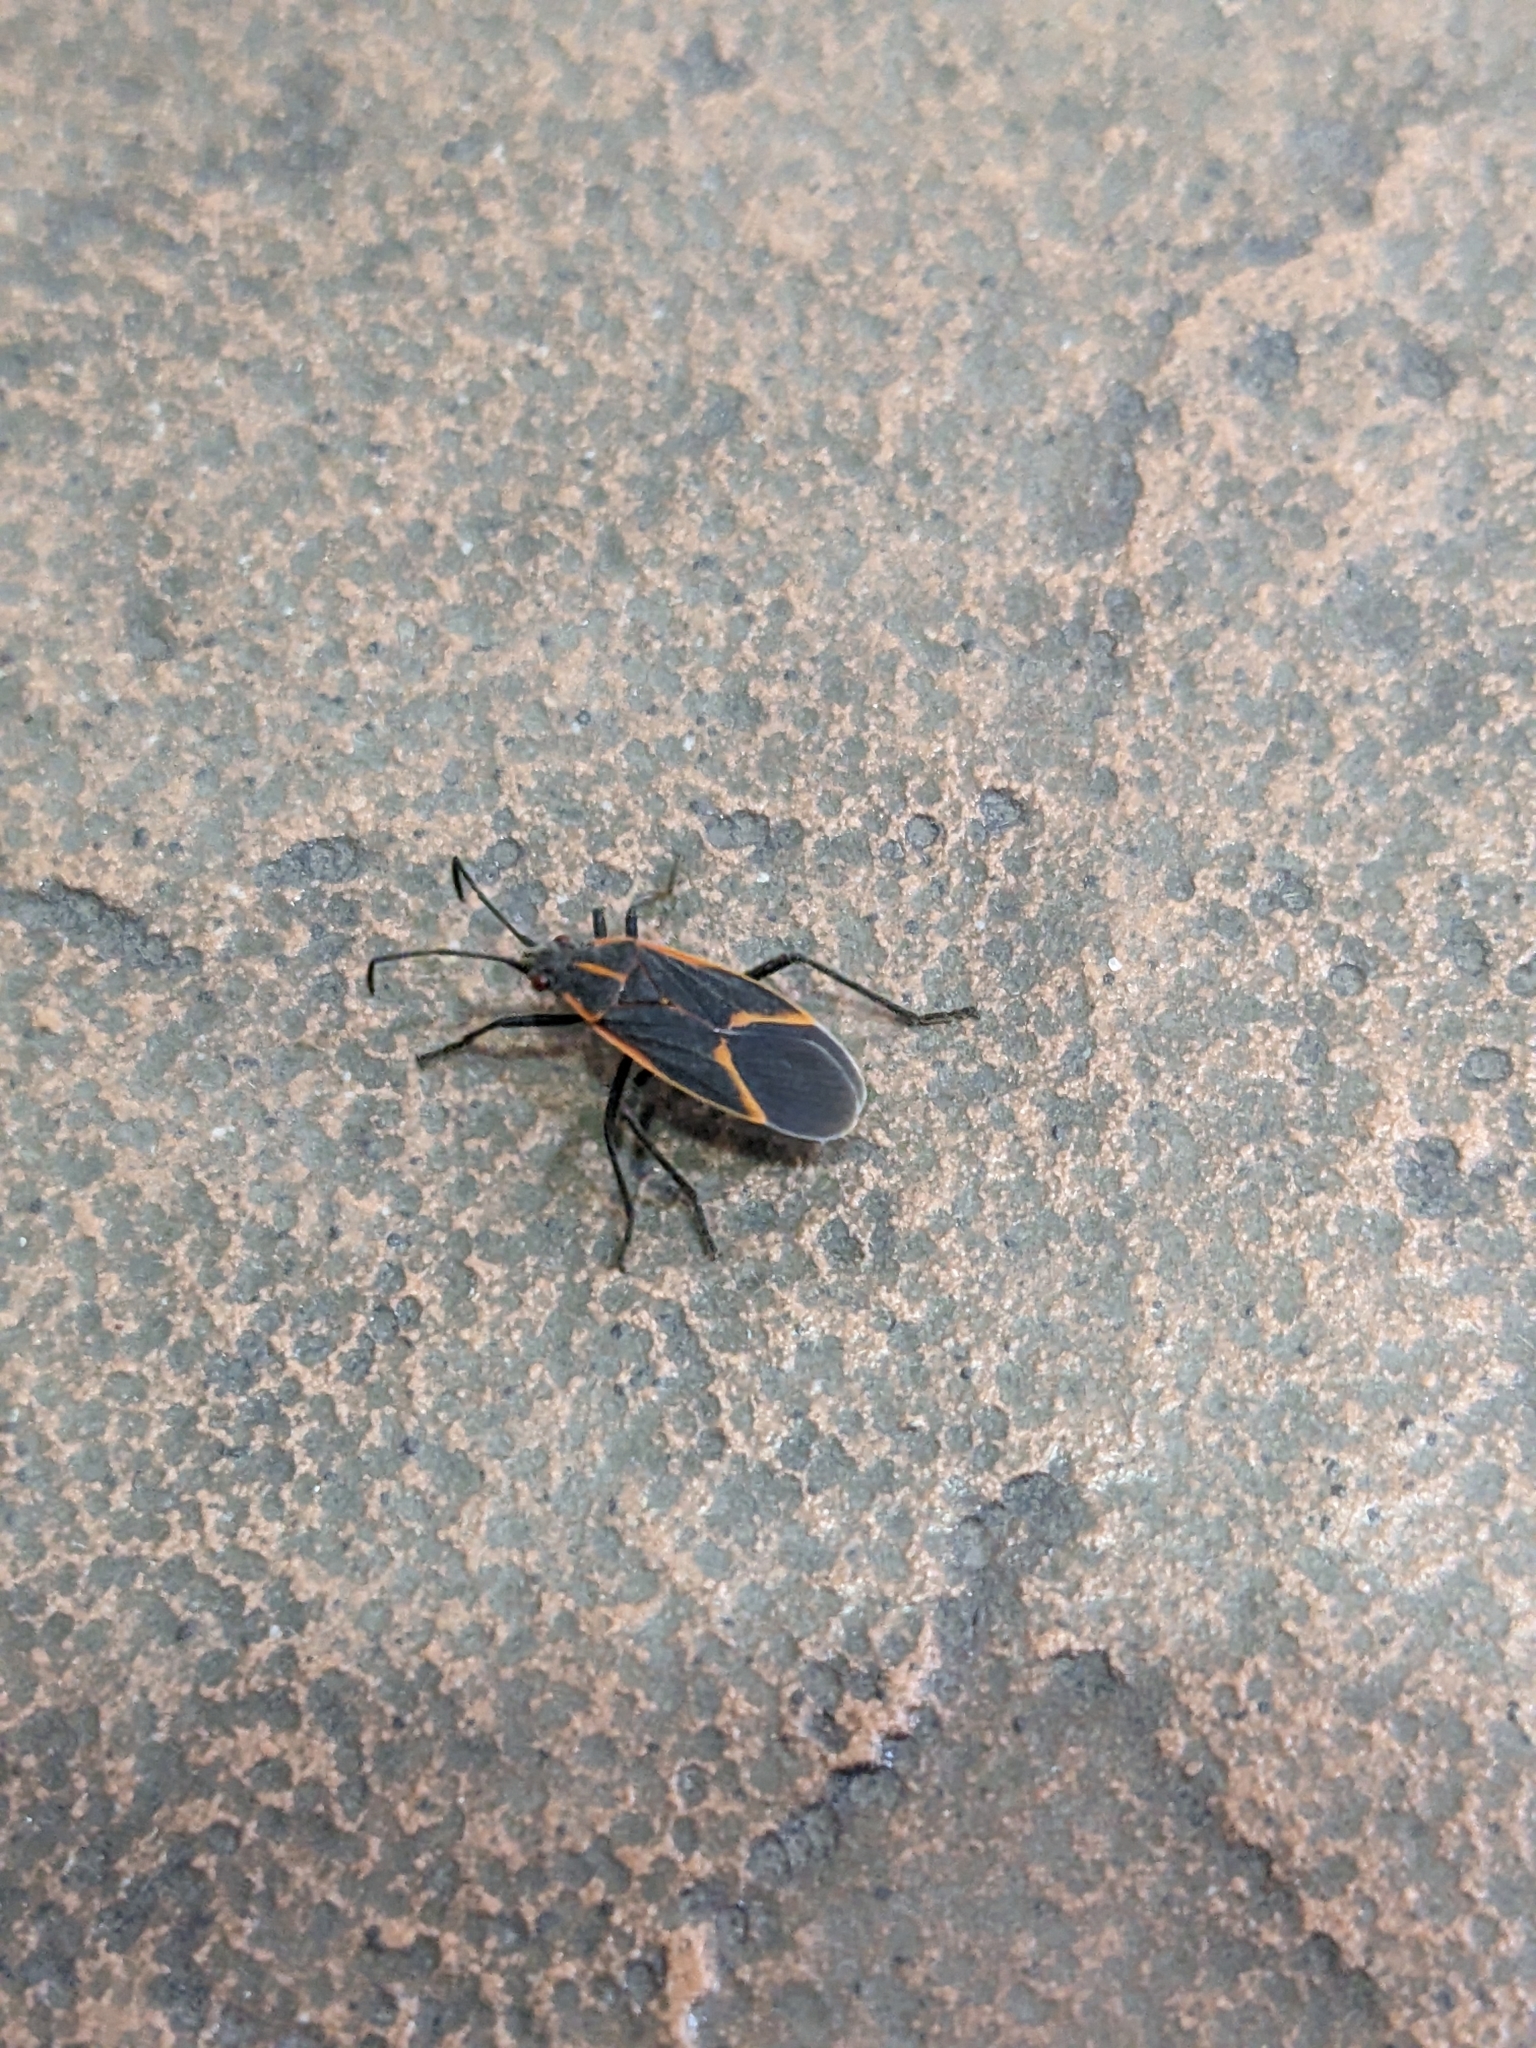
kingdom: Animalia
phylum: Arthropoda
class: Insecta
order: Hemiptera
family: Rhopalidae
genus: Boisea
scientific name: Boisea trivittata
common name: Boxelder bug
